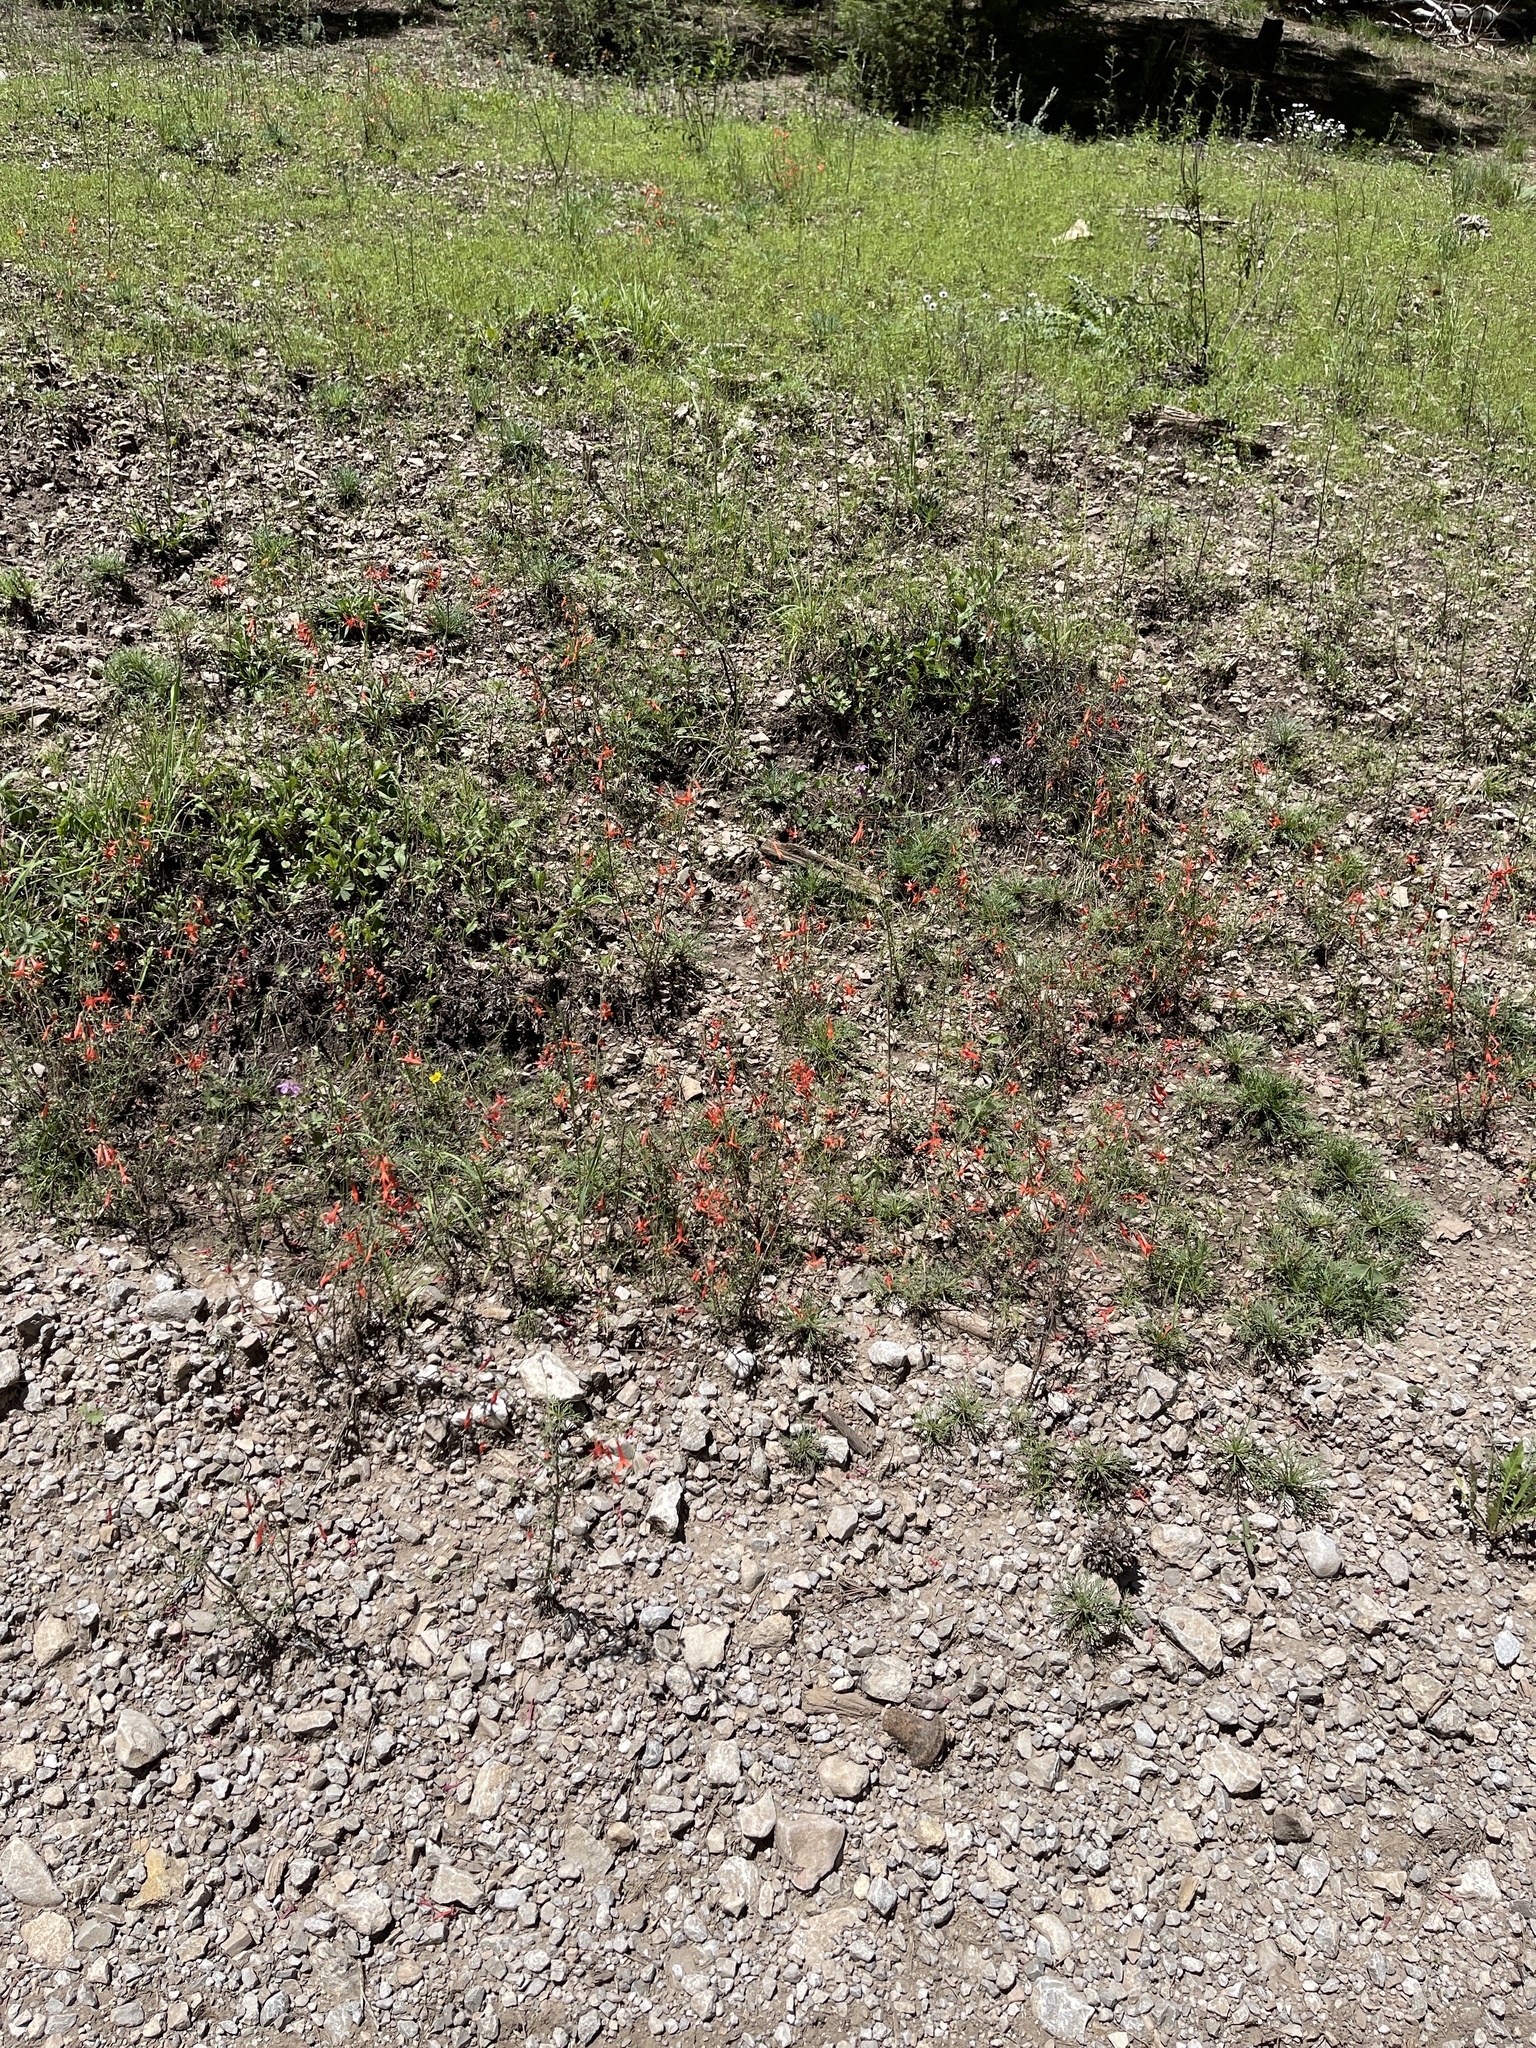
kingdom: Plantae
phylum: Tracheophyta
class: Magnoliopsida
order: Ericales
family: Polemoniaceae
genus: Ipomopsis
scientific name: Ipomopsis aggregata
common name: Scarlet gilia
